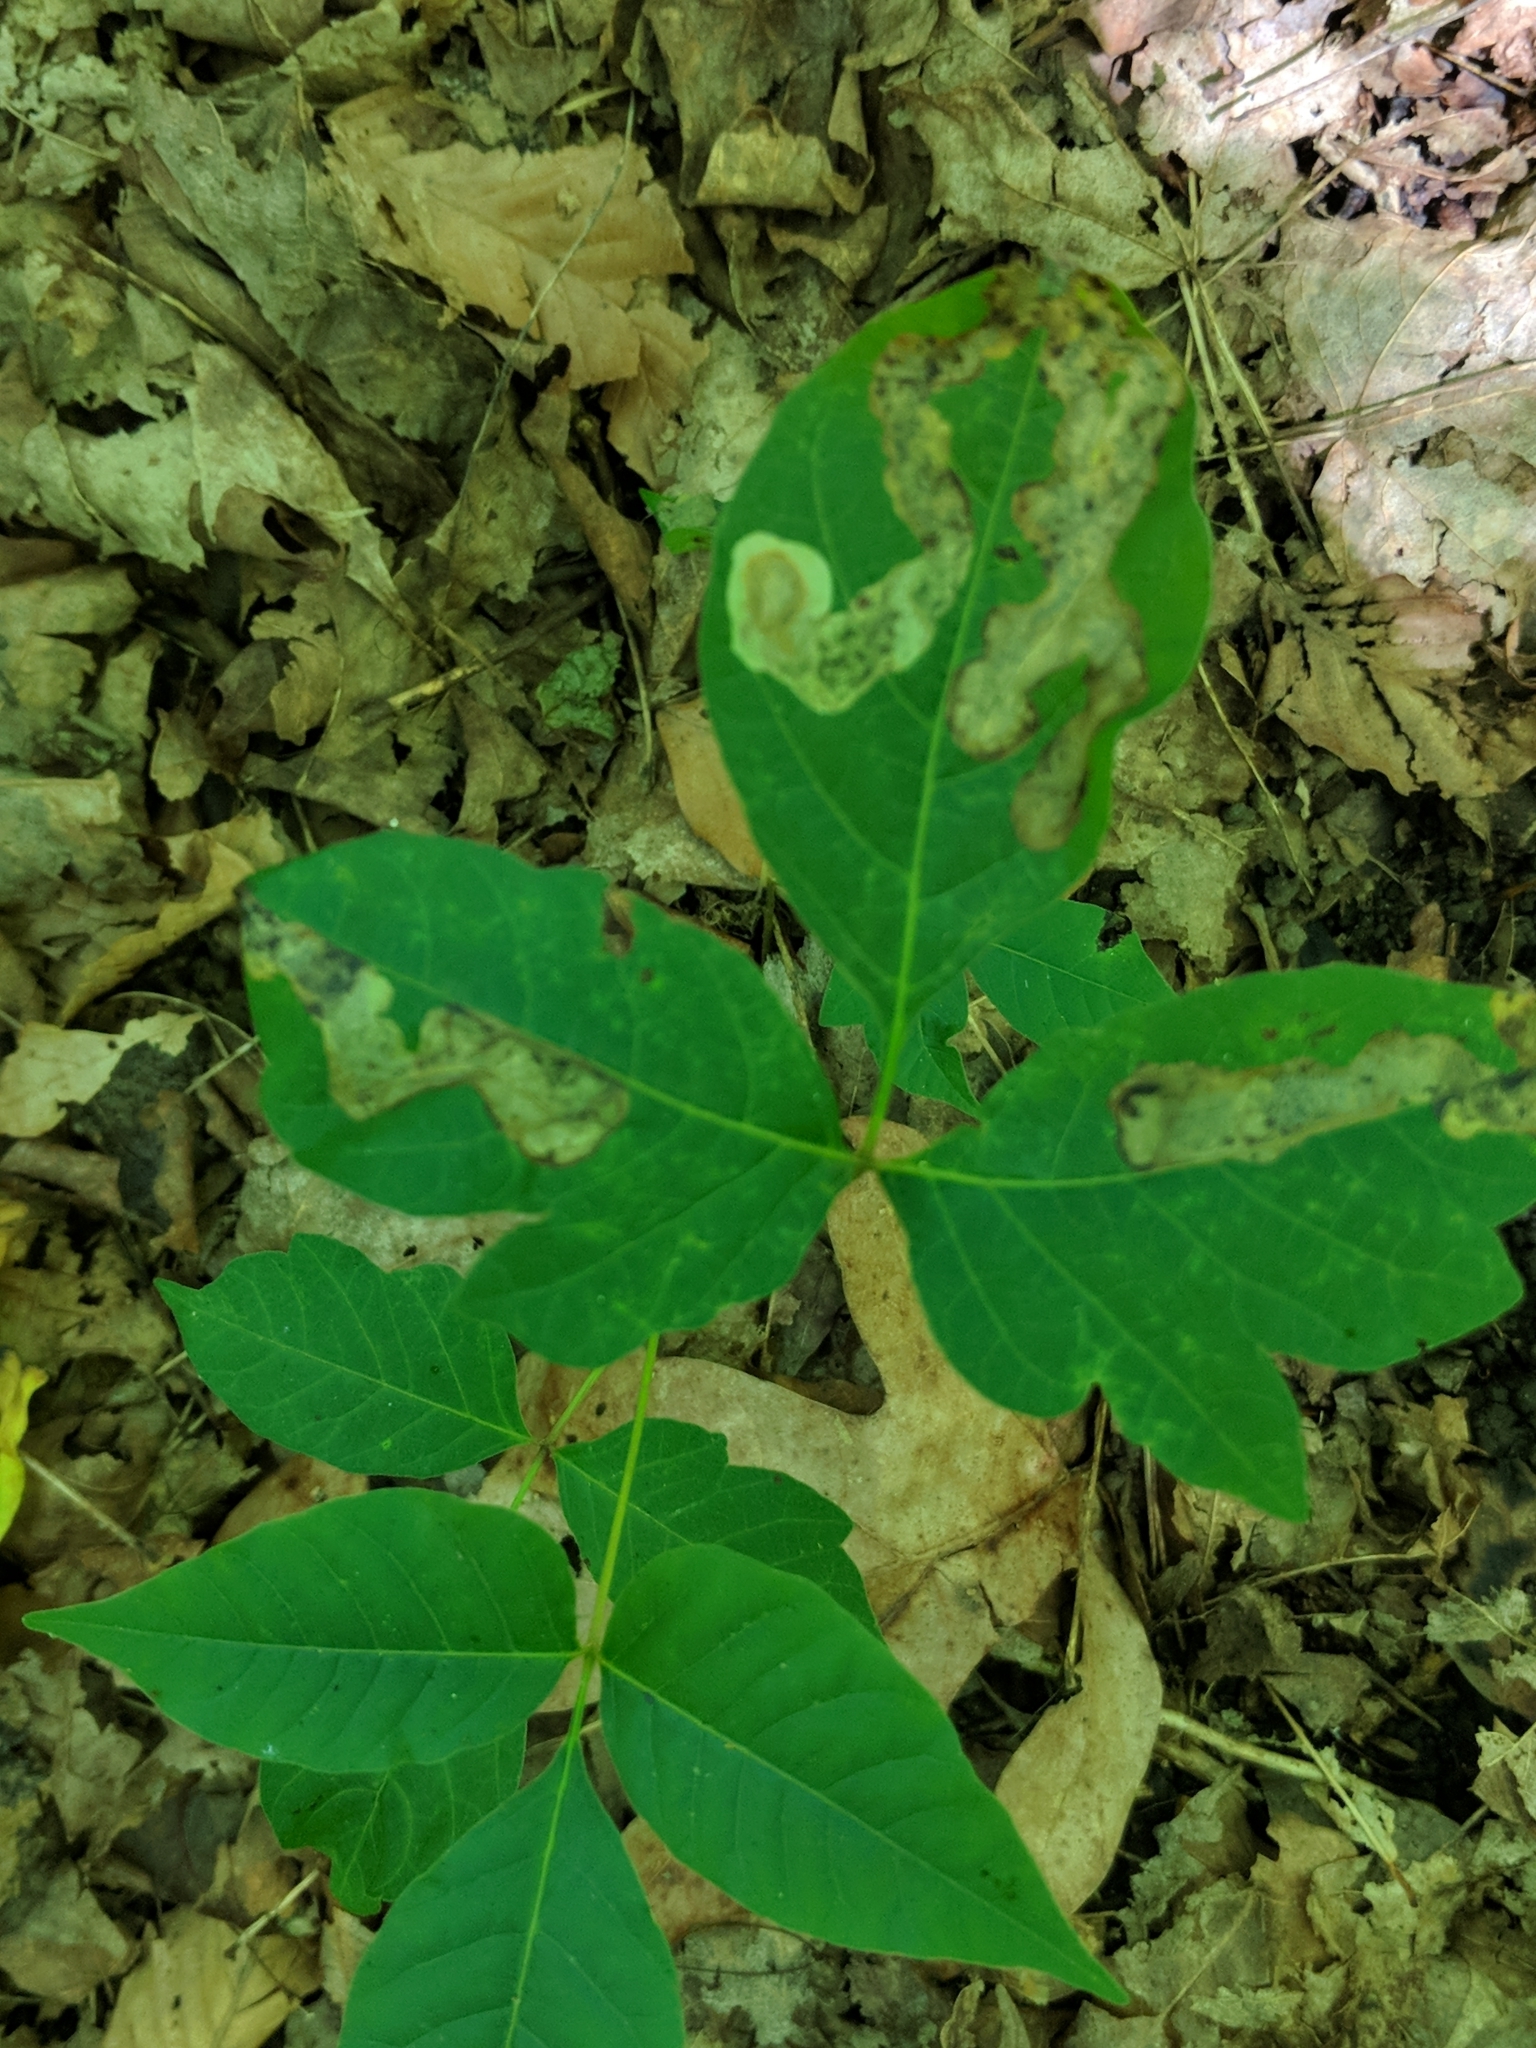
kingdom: Animalia
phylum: Arthropoda
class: Insecta
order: Lepidoptera
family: Gracillariidae
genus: Cameraria
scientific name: Cameraria guttifinitella
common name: Poison ivy leaf-miner moth
